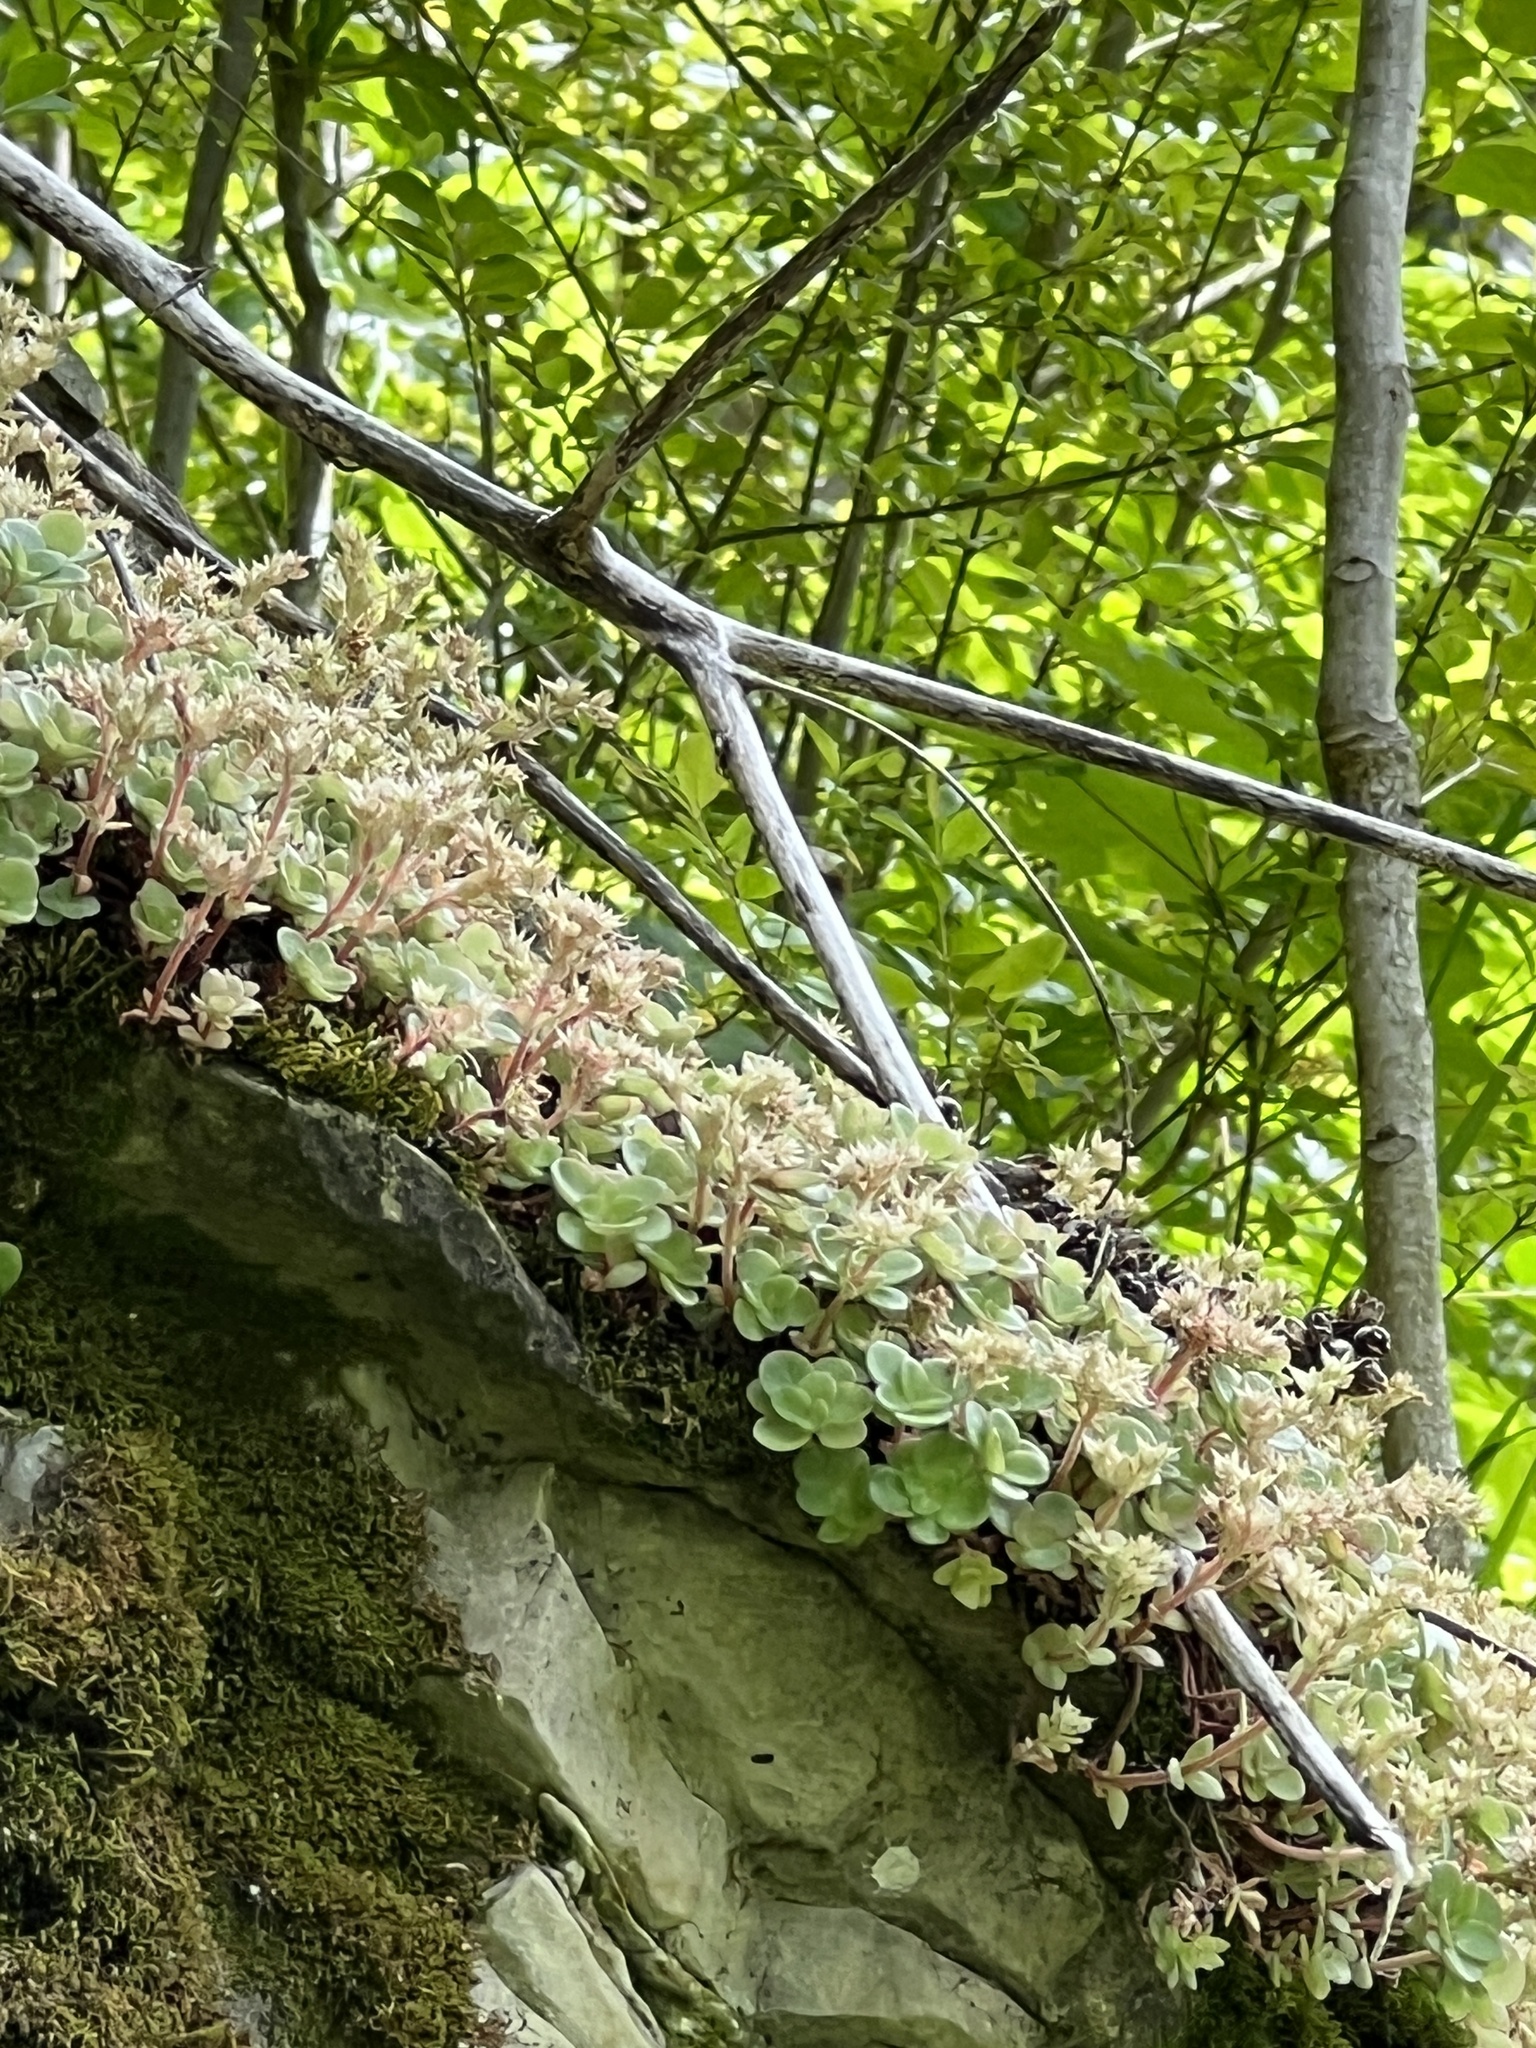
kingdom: Plantae
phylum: Tracheophyta
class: Magnoliopsida
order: Saxifragales
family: Crassulaceae
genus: Sedum
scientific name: Sedum ternatum
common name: Wild stonecrop
